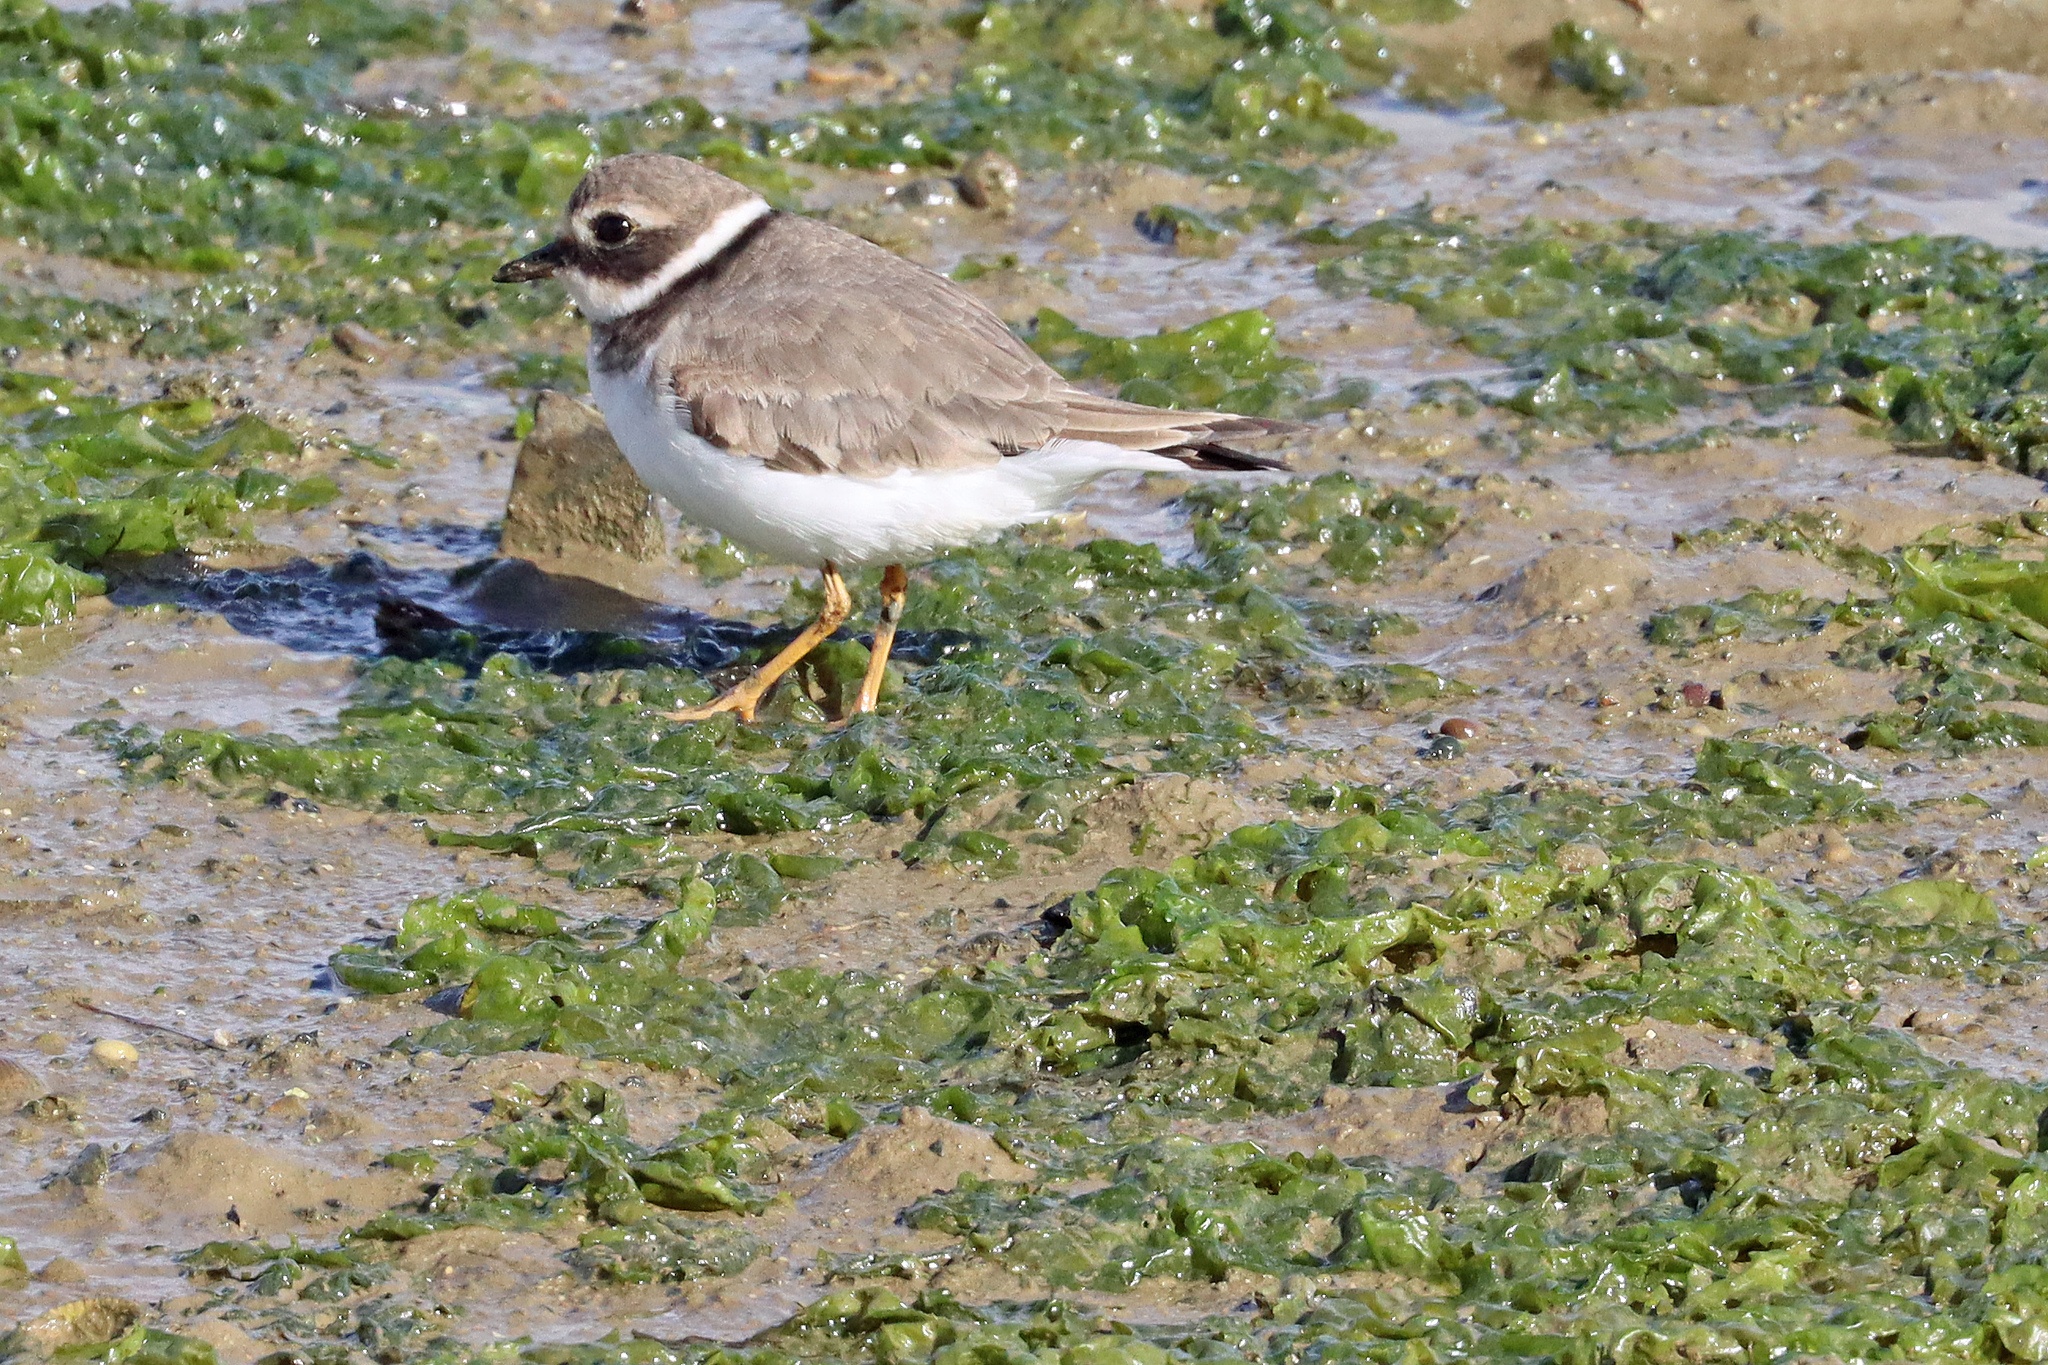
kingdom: Animalia
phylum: Chordata
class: Aves
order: Charadriiformes
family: Charadriidae
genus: Charadrius
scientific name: Charadrius hiaticula
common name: Common ringed plover
